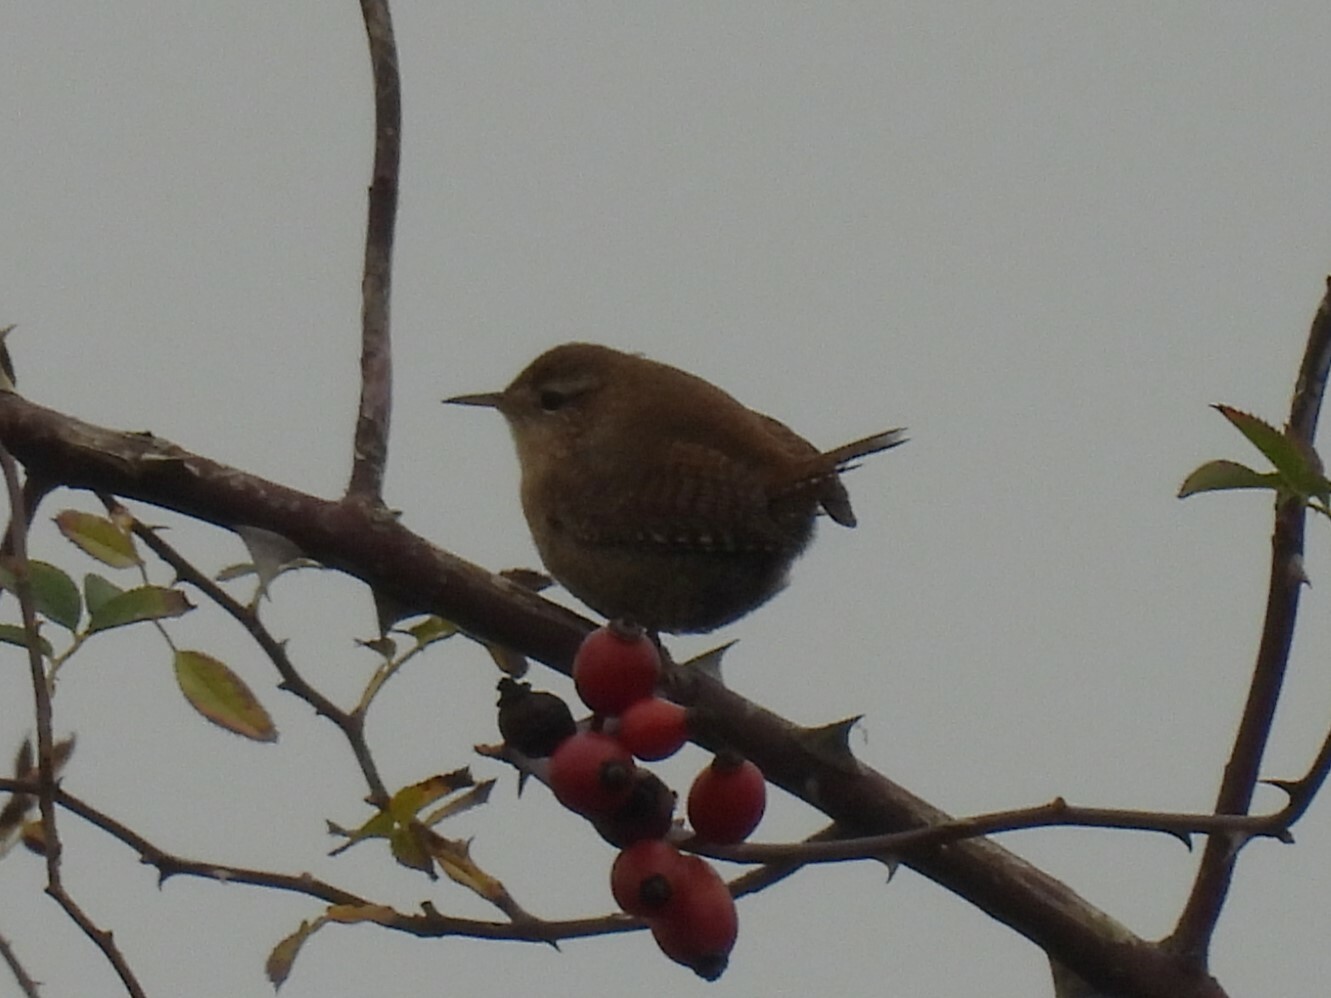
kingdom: Animalia
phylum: Chordata
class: Aves
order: Passeriformes
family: Troglodytidae
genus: Troglodytes
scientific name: Troglodytes troglodytes
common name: Eurasian wren
